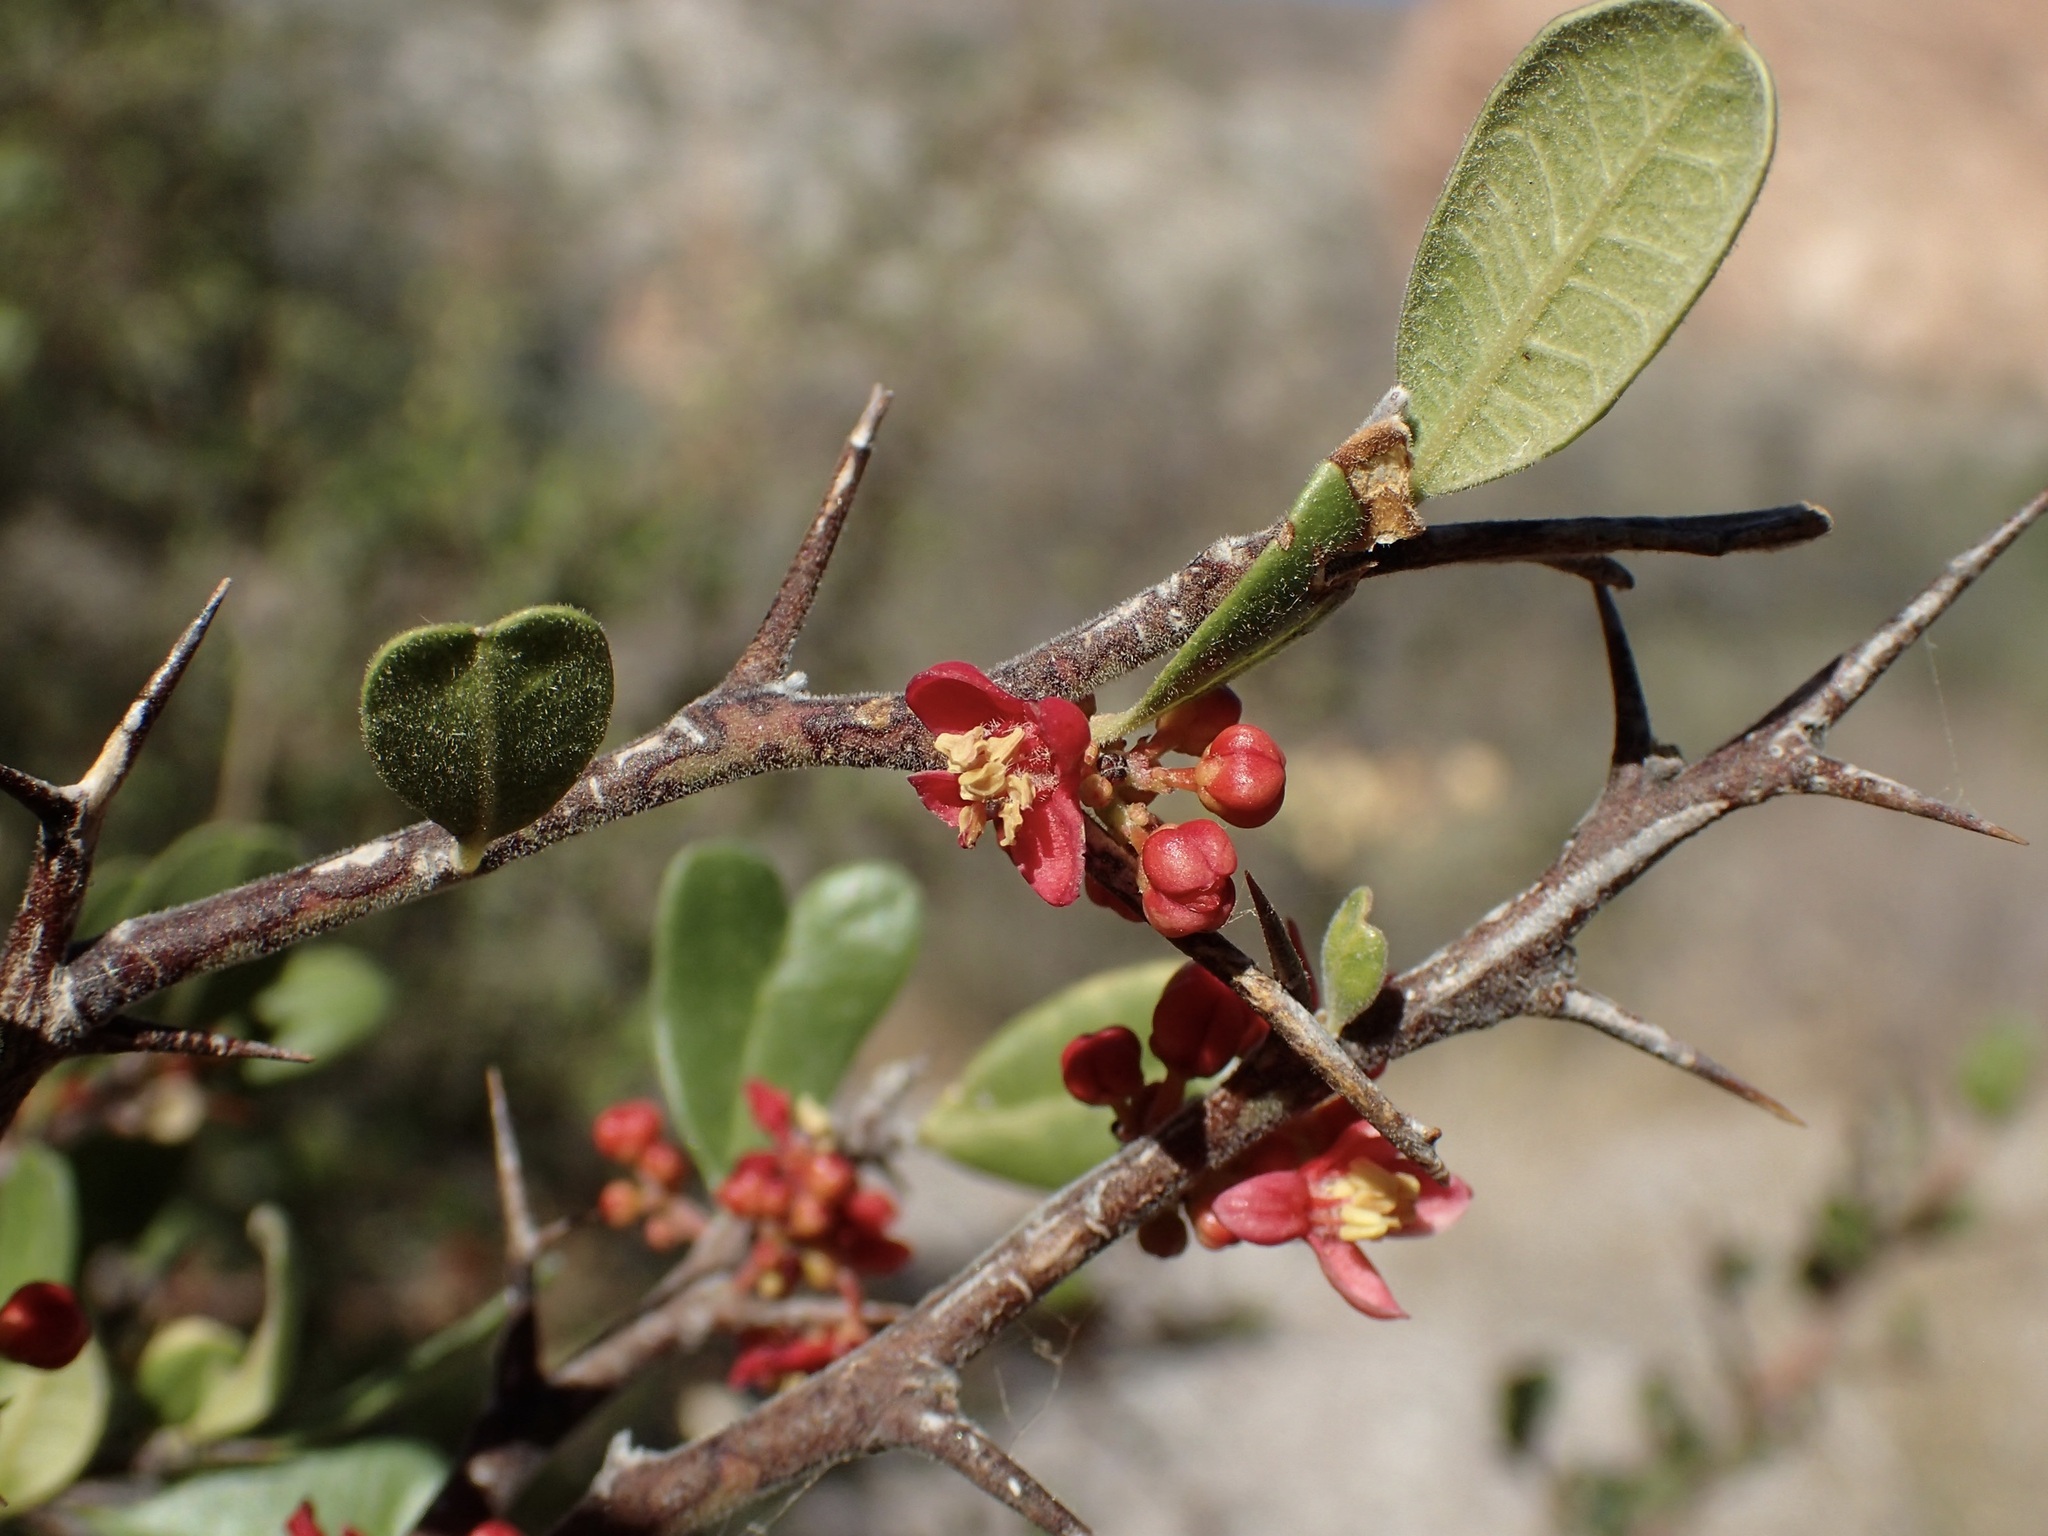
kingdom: Plantae
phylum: Tracheophyta
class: Magnoliopsida
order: Sapindales
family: Simaroubaceae
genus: Castela
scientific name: Castela peninsularis
